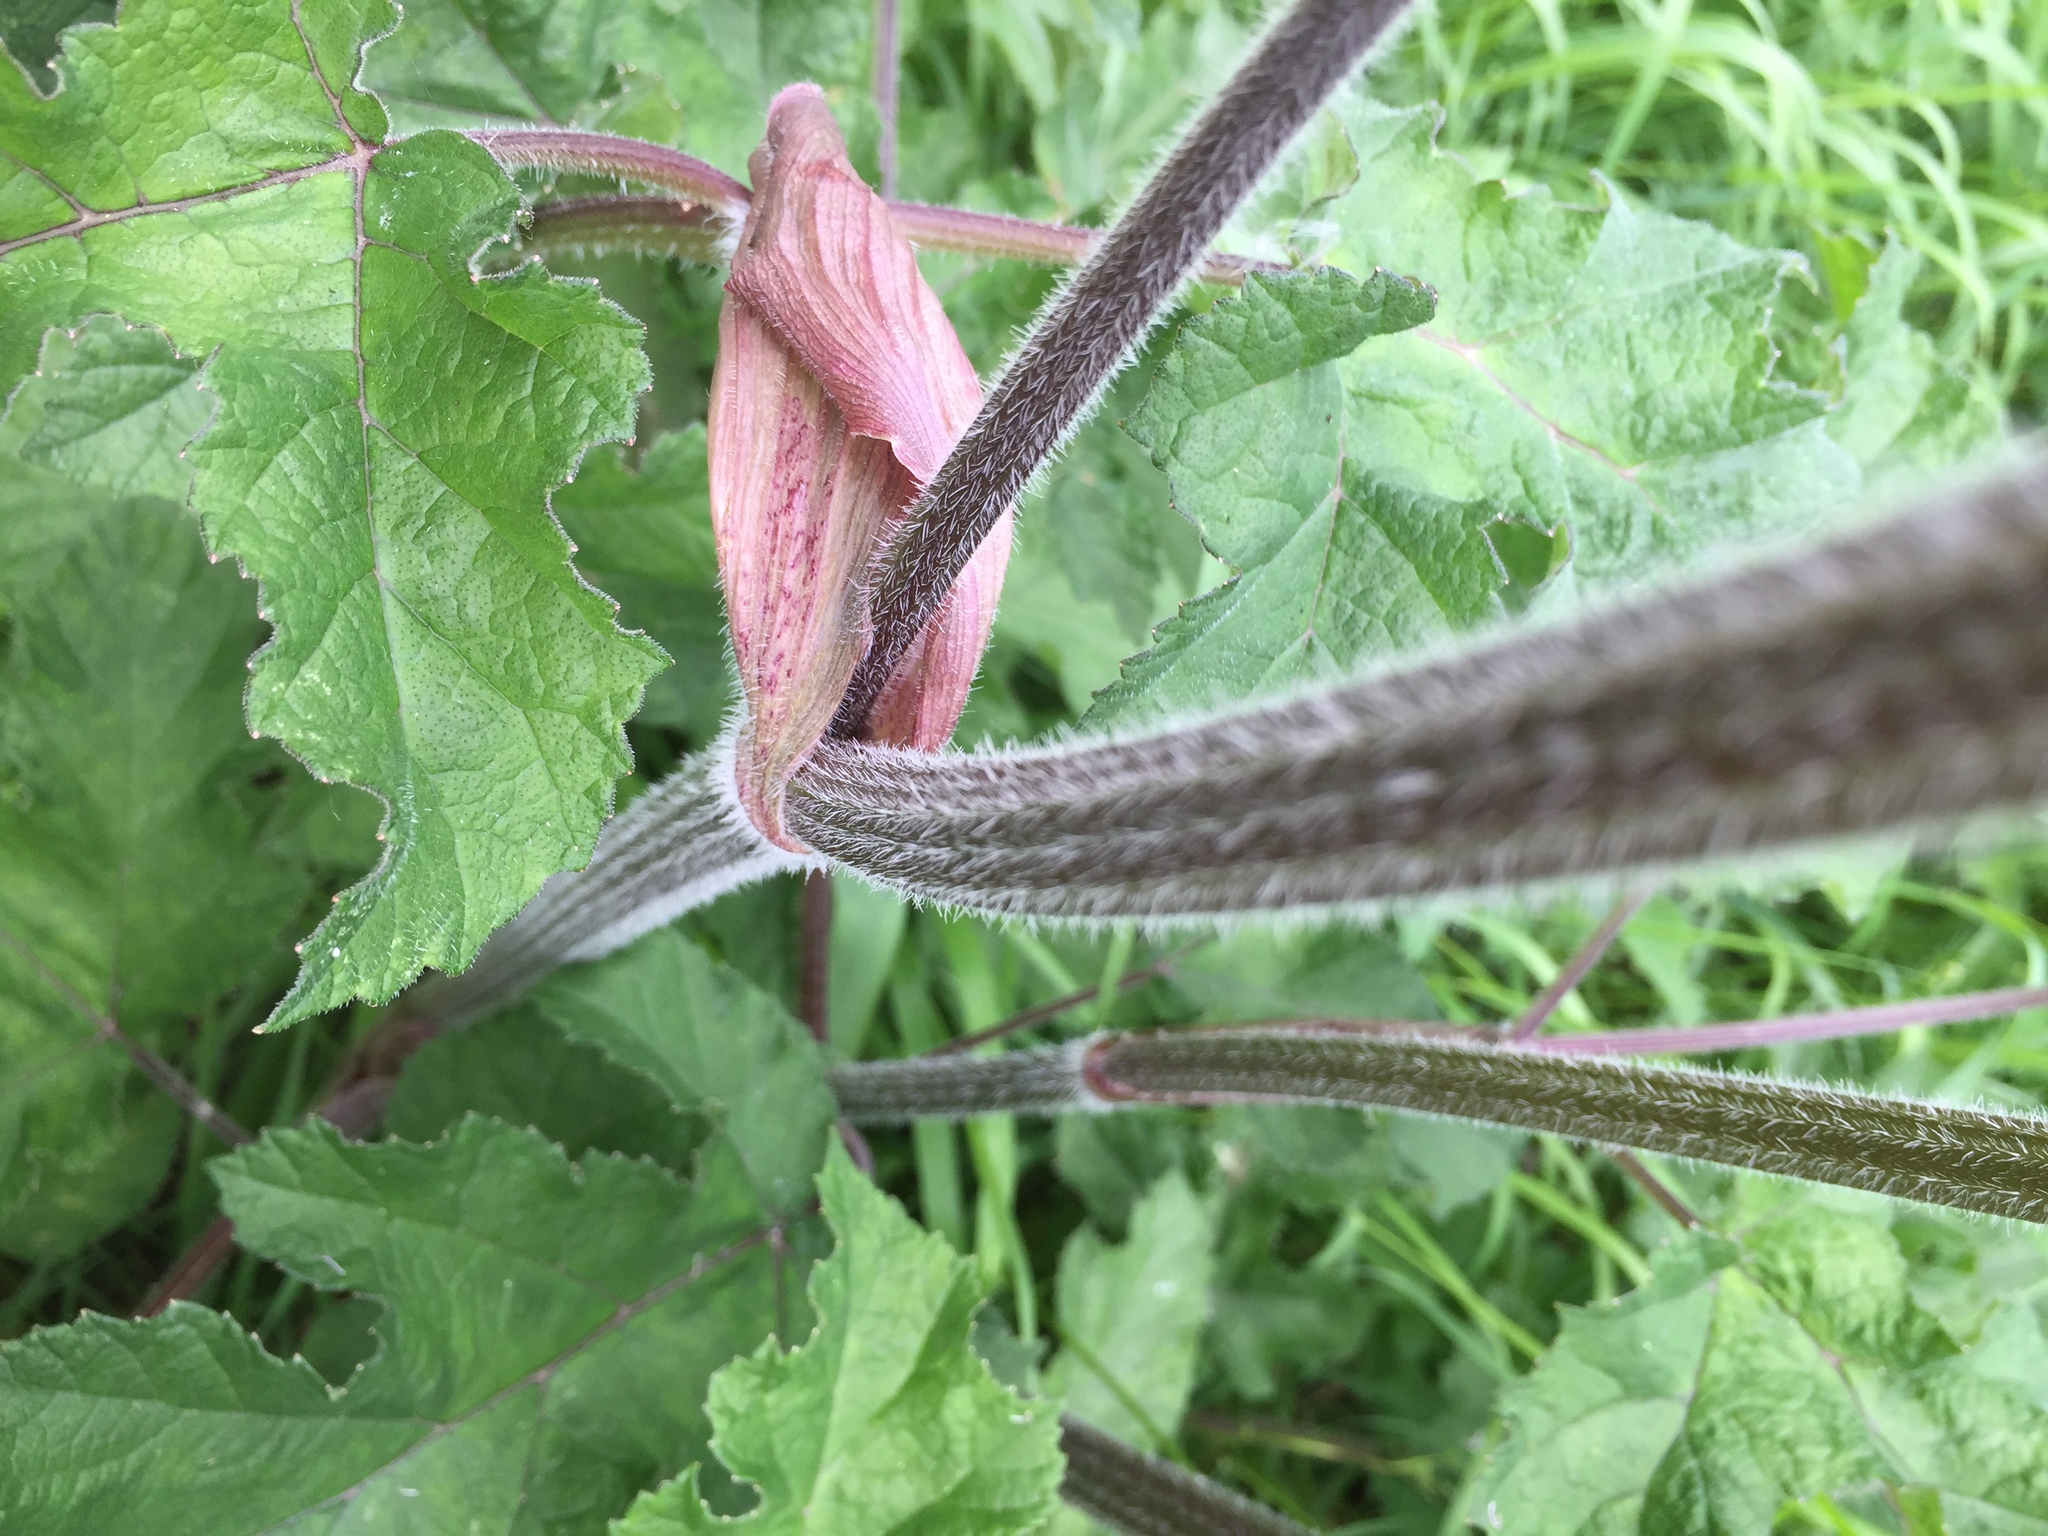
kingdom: Plantae
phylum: Tracheophyta
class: Magnoliopsida
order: Apiales
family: Apiaceae
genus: Heracleum
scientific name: Heracleum sphondylium
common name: Hogweed
